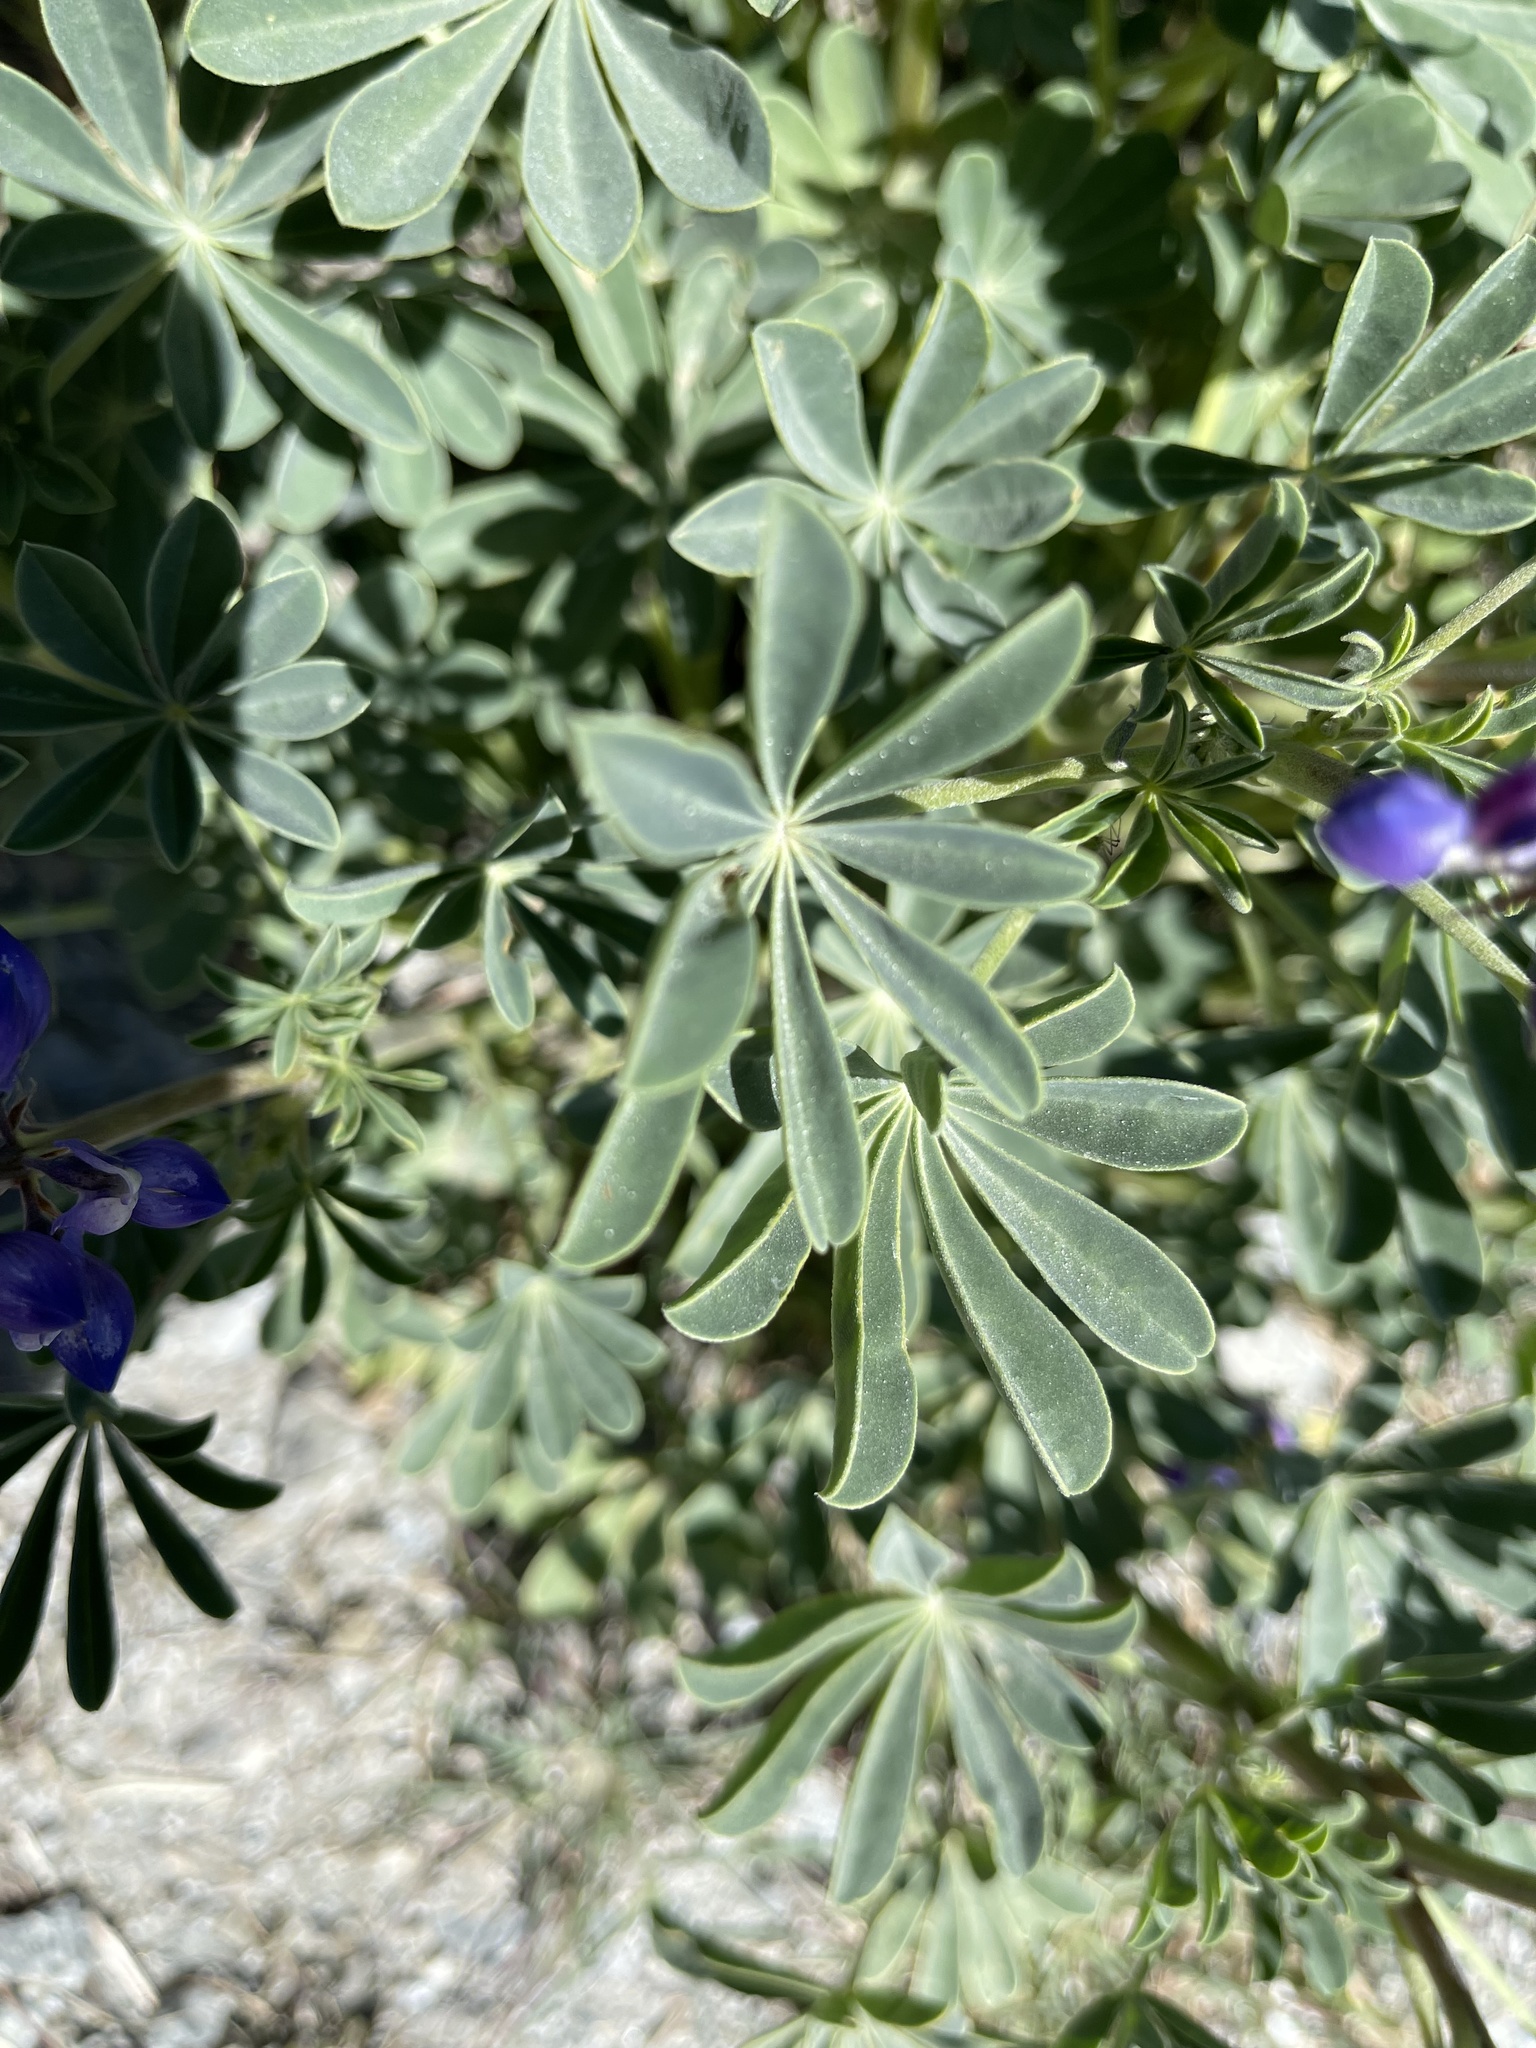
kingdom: Plantae
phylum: Tracheophyta
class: Magnoliopsida
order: Fabales
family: Fabaceae
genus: Lupinus
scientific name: Lupinus succulentus
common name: Arroyo lupine
